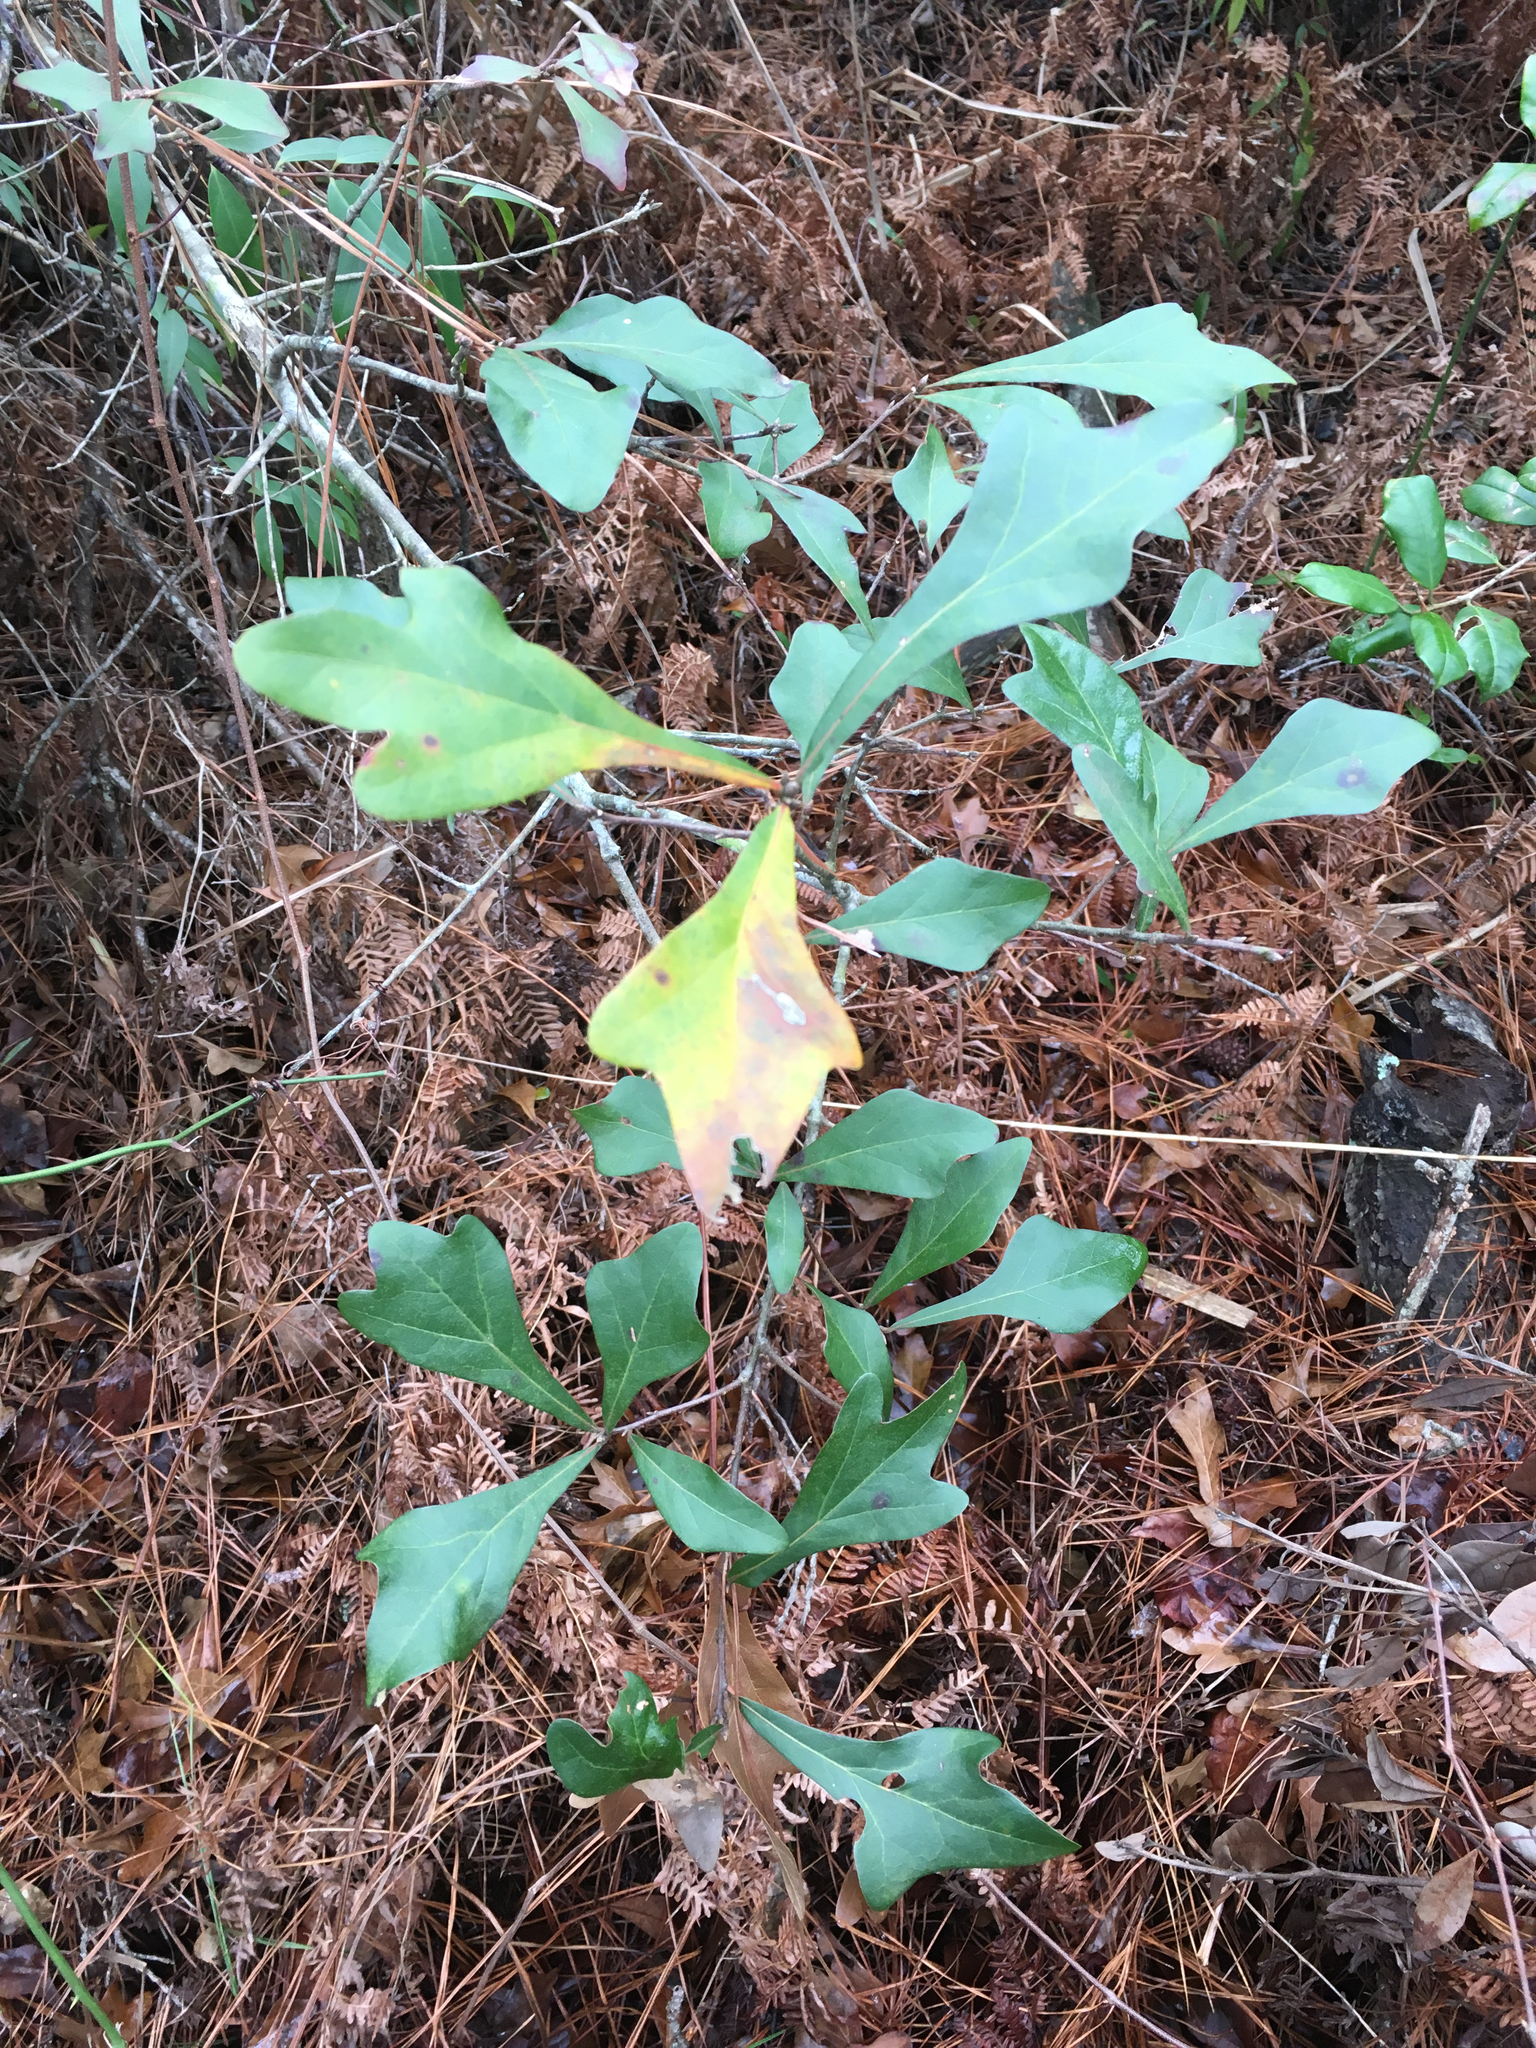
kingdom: Plantae
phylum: Tracheophyta
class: Magnoliopsida
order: Fagales
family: Fagaceae
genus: Quercus
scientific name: Quercus nigra
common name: Water oak
